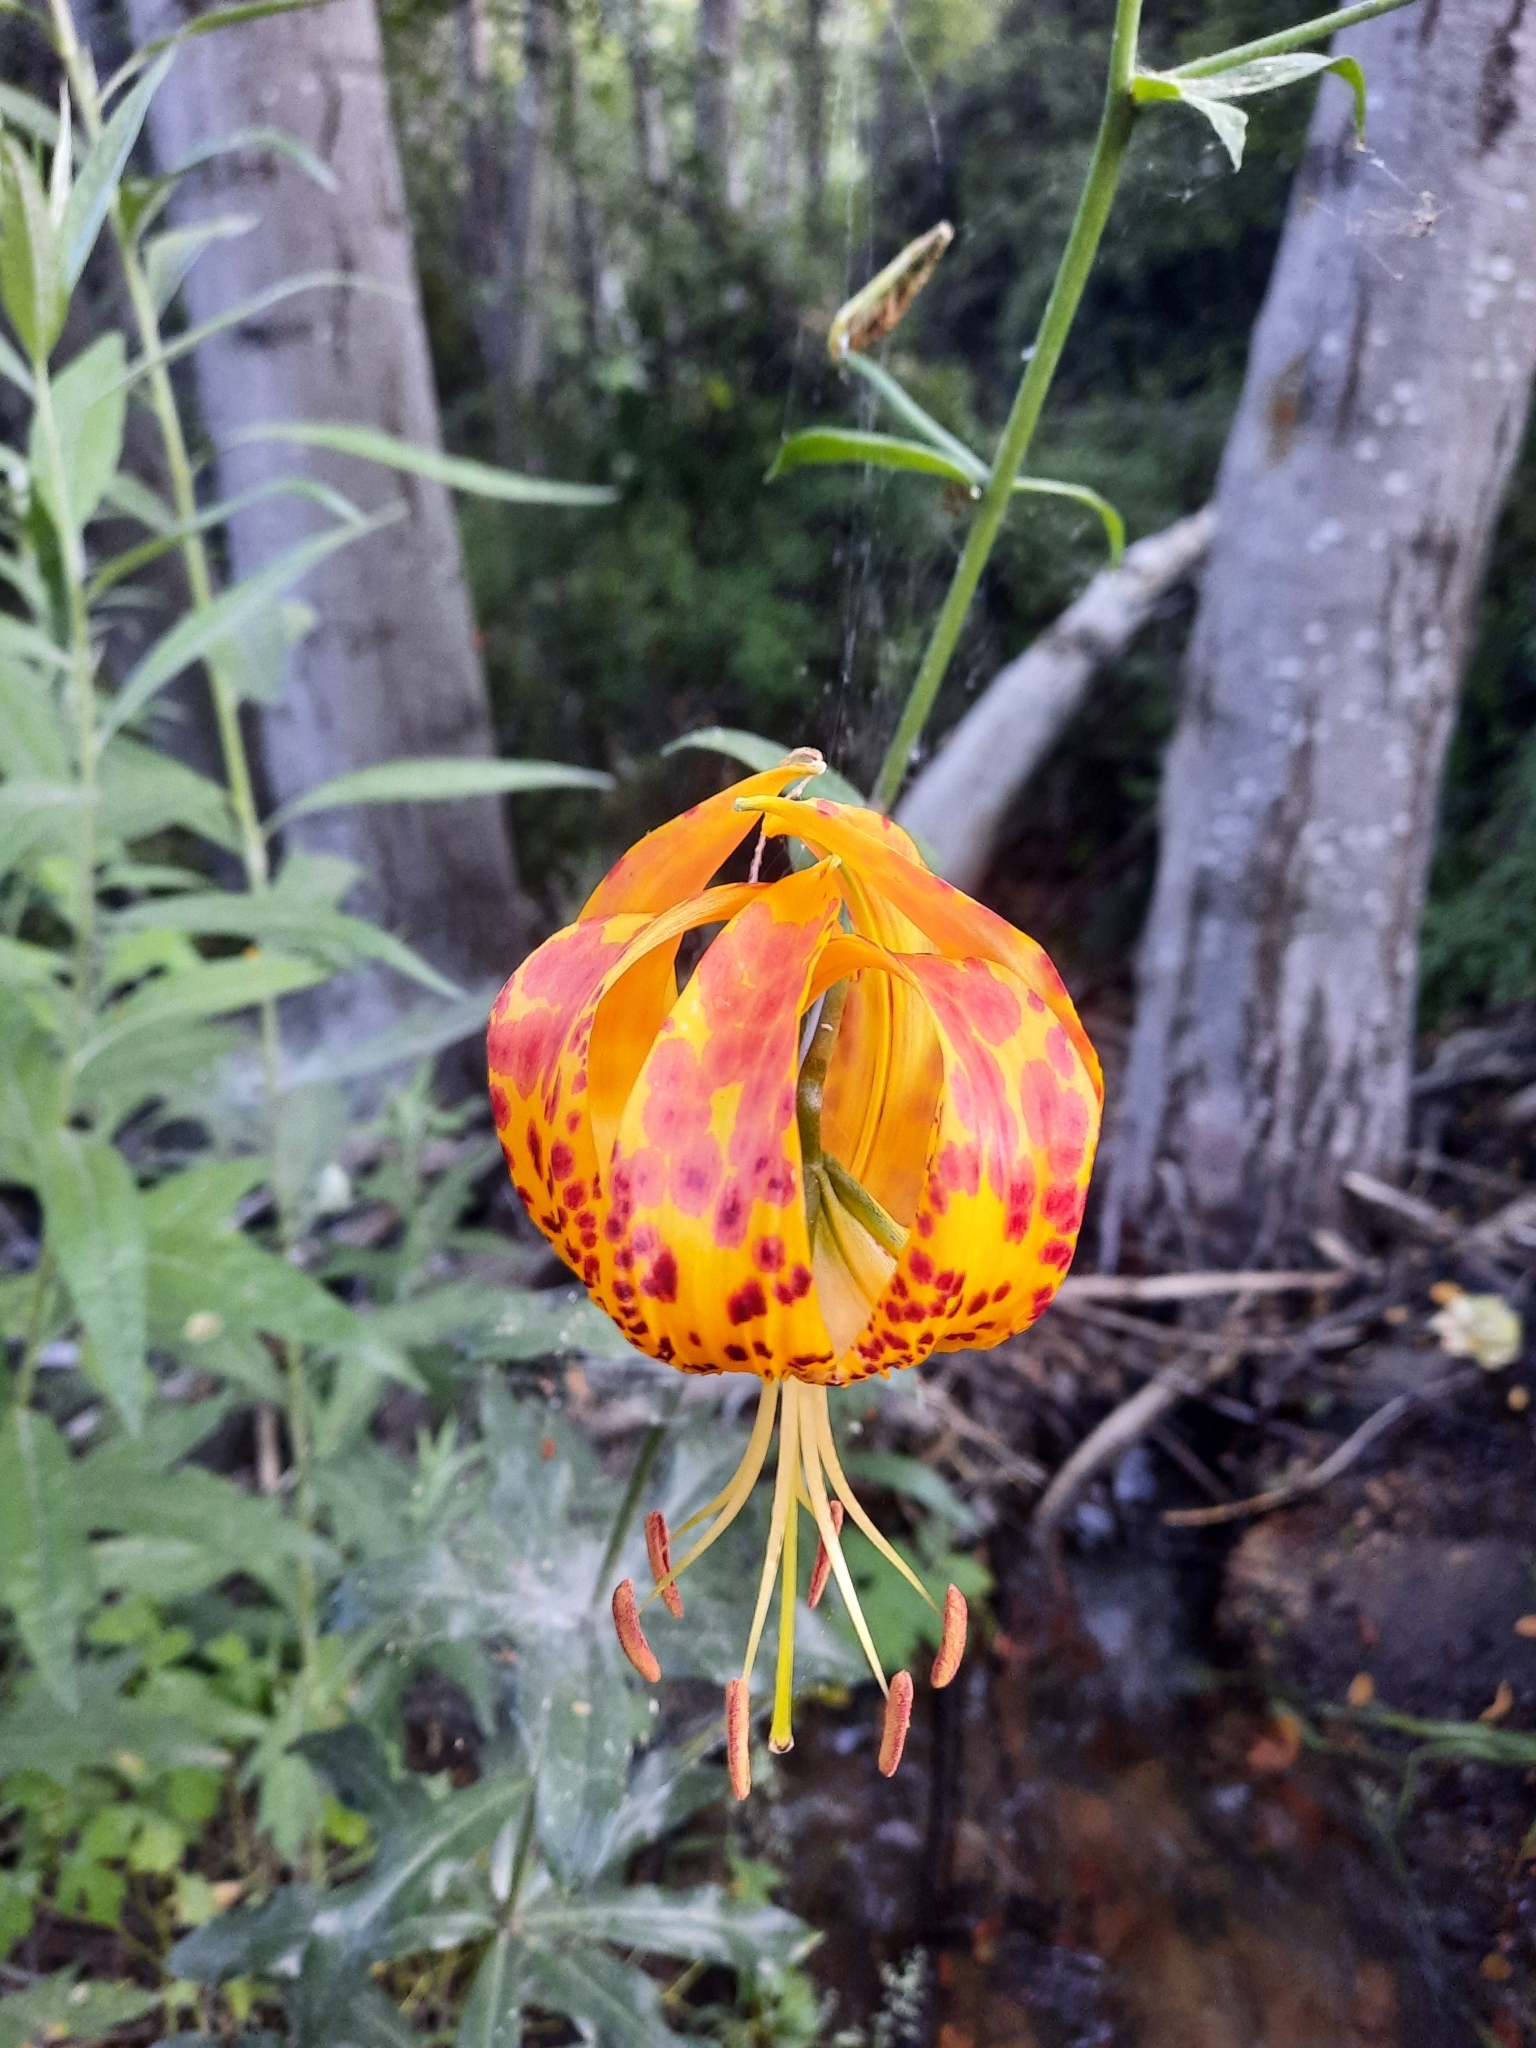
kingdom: Plantae
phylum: Tracheophyta
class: Liliopsida
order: Liliales
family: Liliaceae
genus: Lilium
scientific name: Lilium humboldtii
